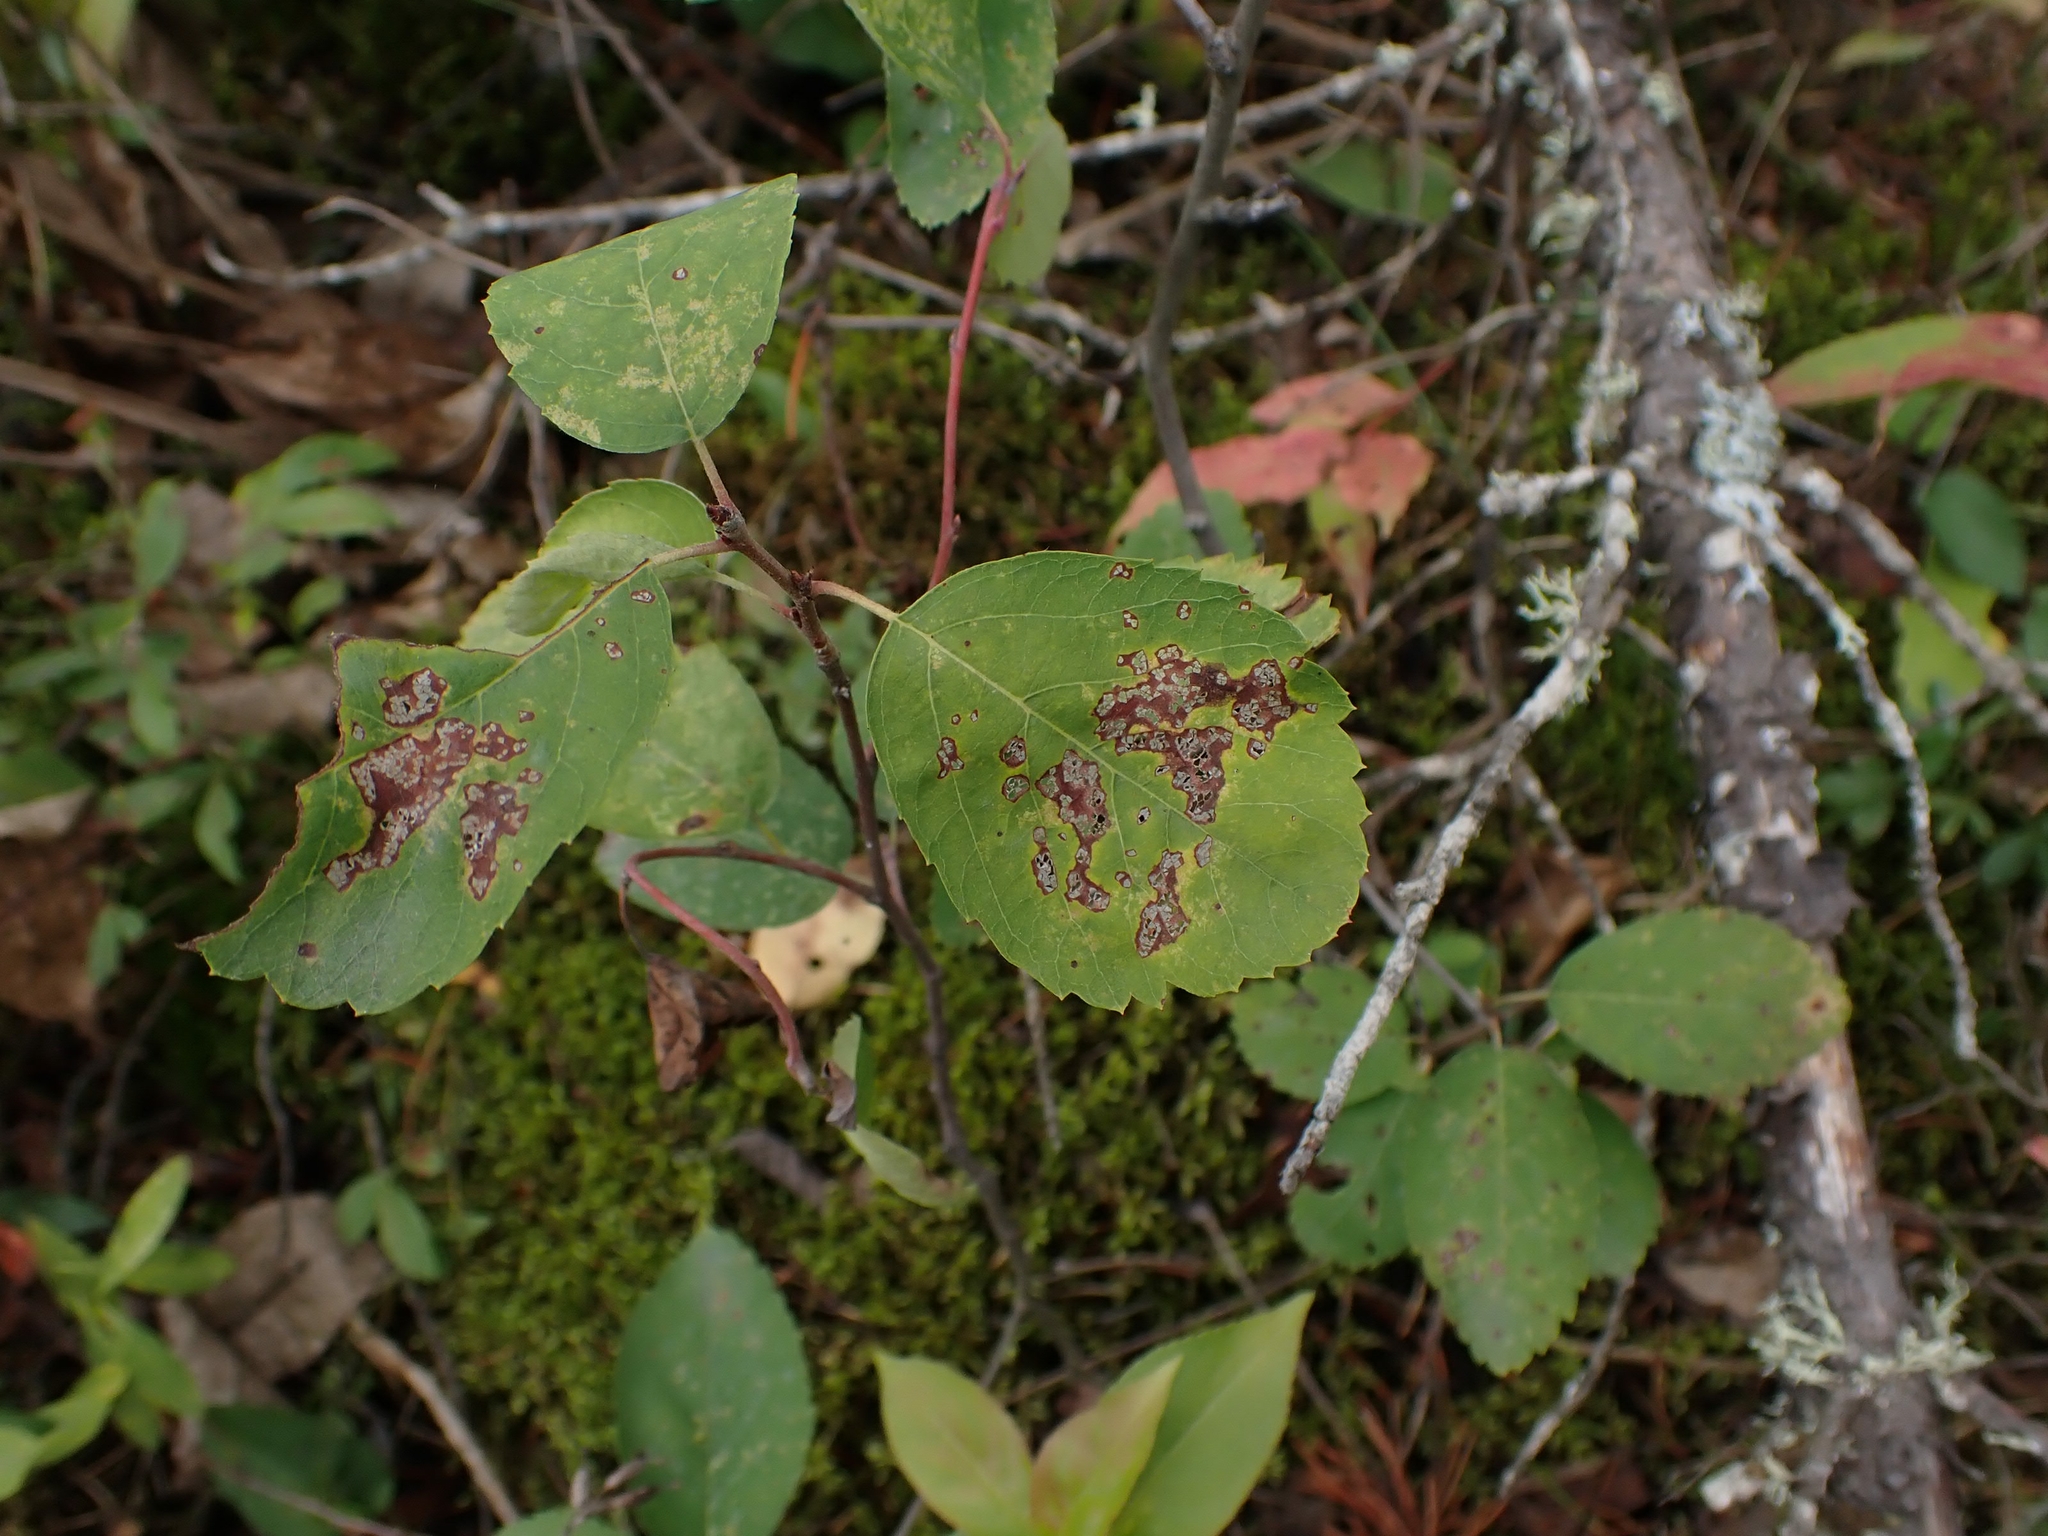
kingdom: Plantae
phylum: Tracheophyta
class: Magnoliopsida
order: Rosales
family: Rosaceae
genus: Amelanchier
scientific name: Amelanchier alnifolia
